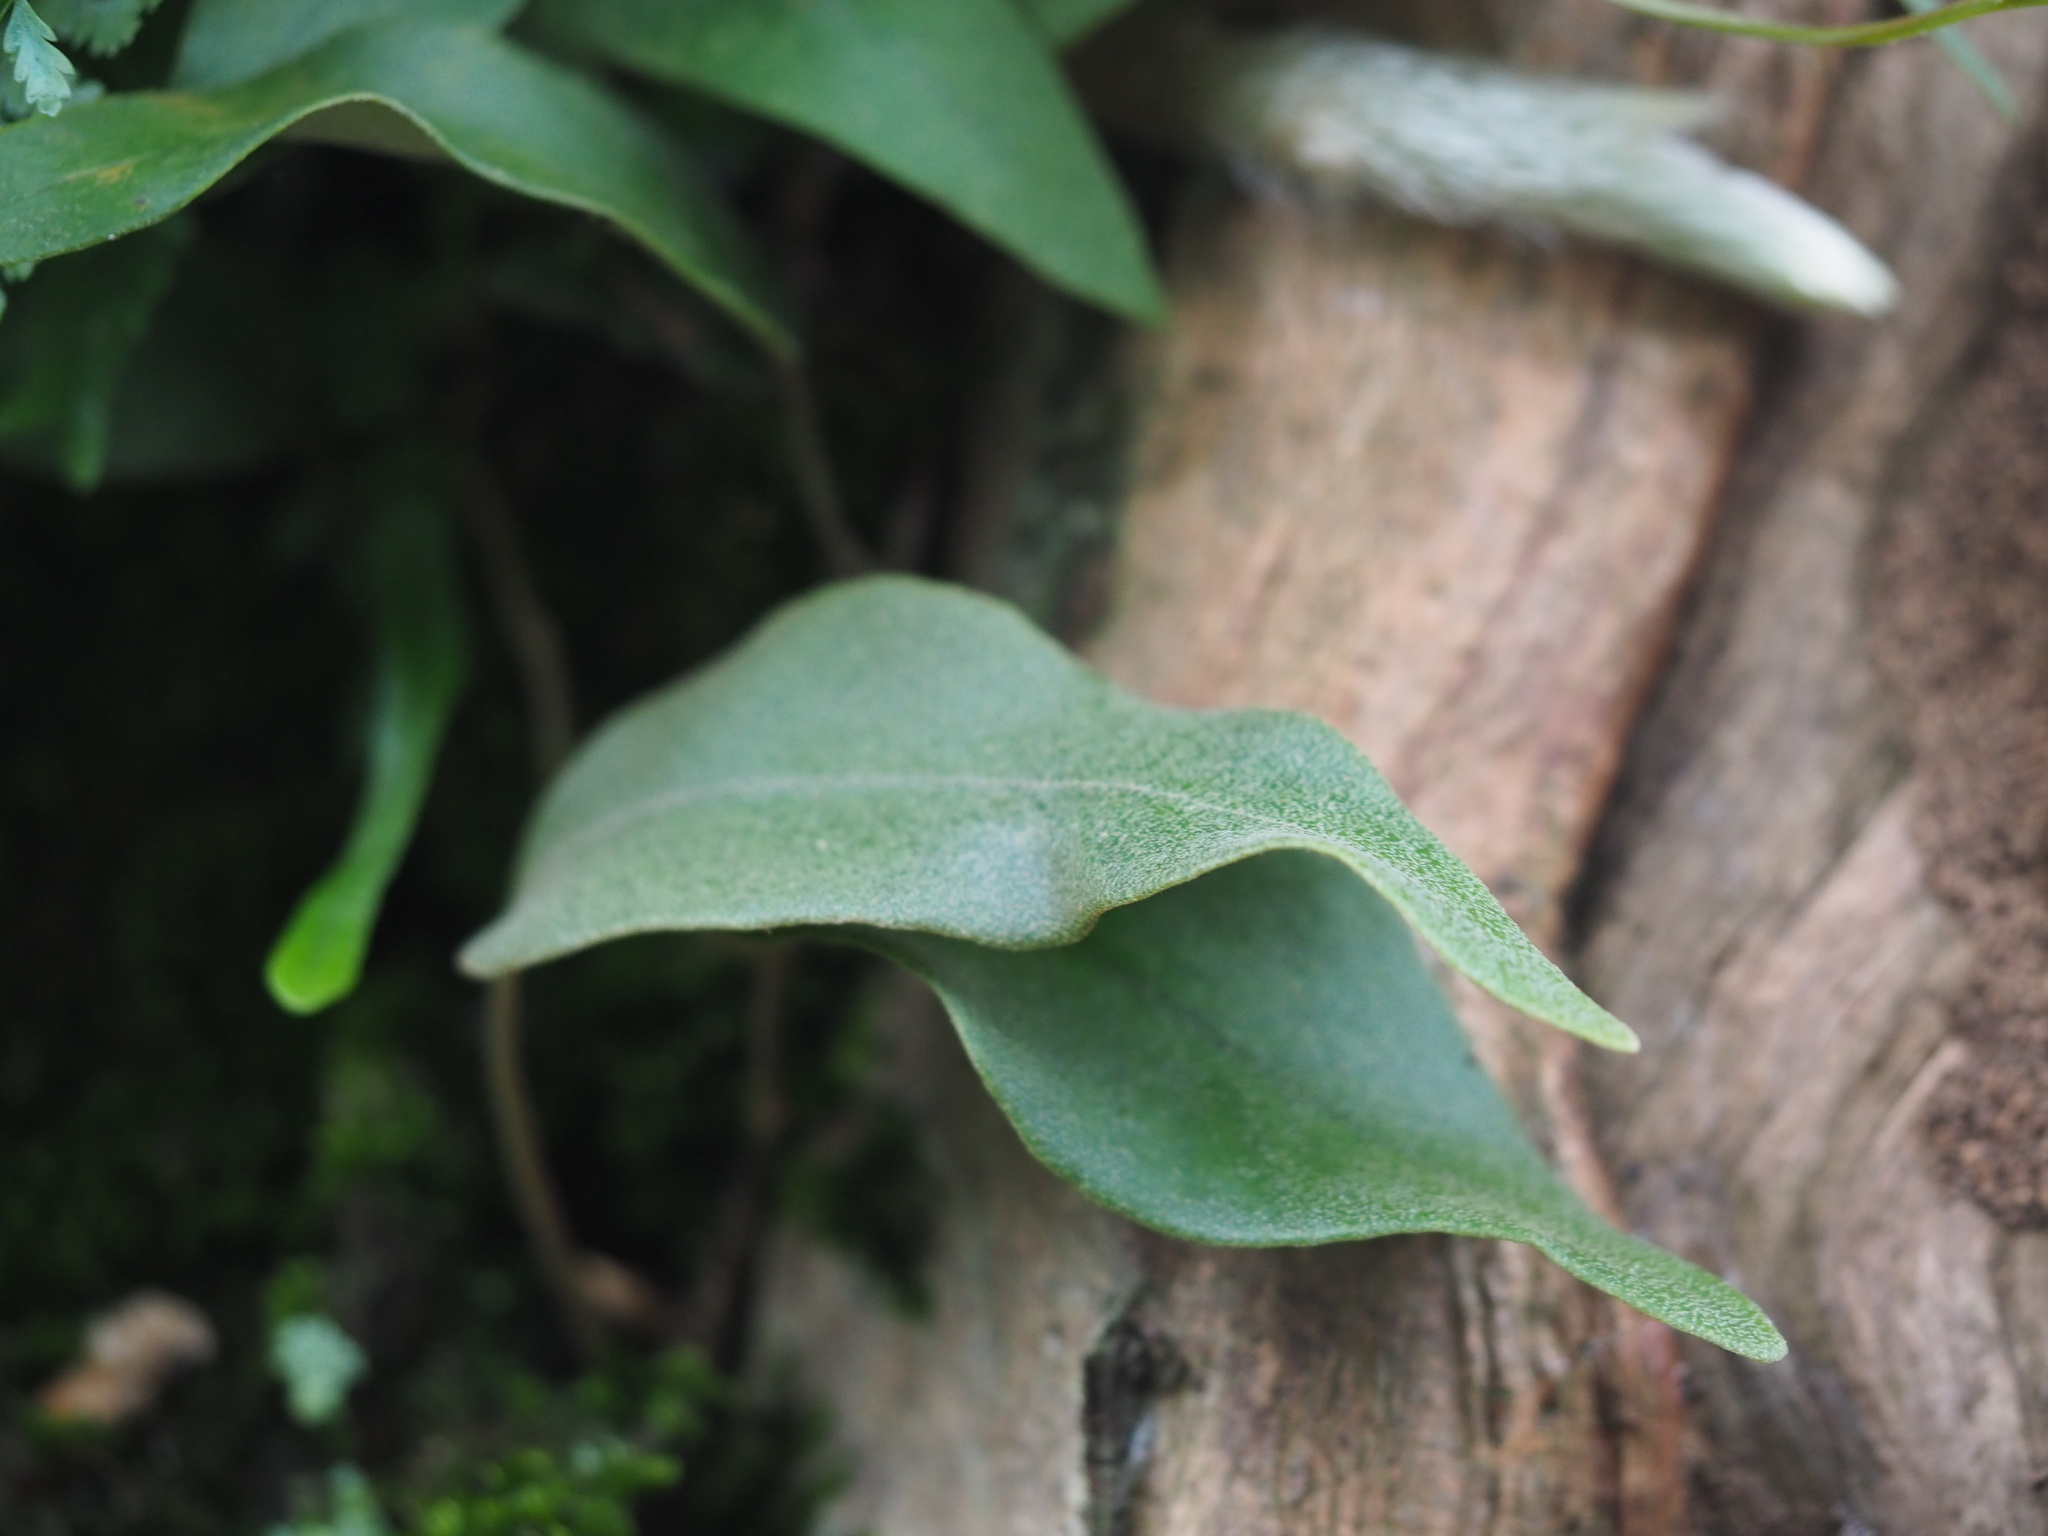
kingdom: Plantae
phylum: Tracheophyta
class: Polypodiopsida
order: Polypodiales
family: Polypodiaceae
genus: Pyrrosia
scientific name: Pyrrosia lingua
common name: Felt fern
